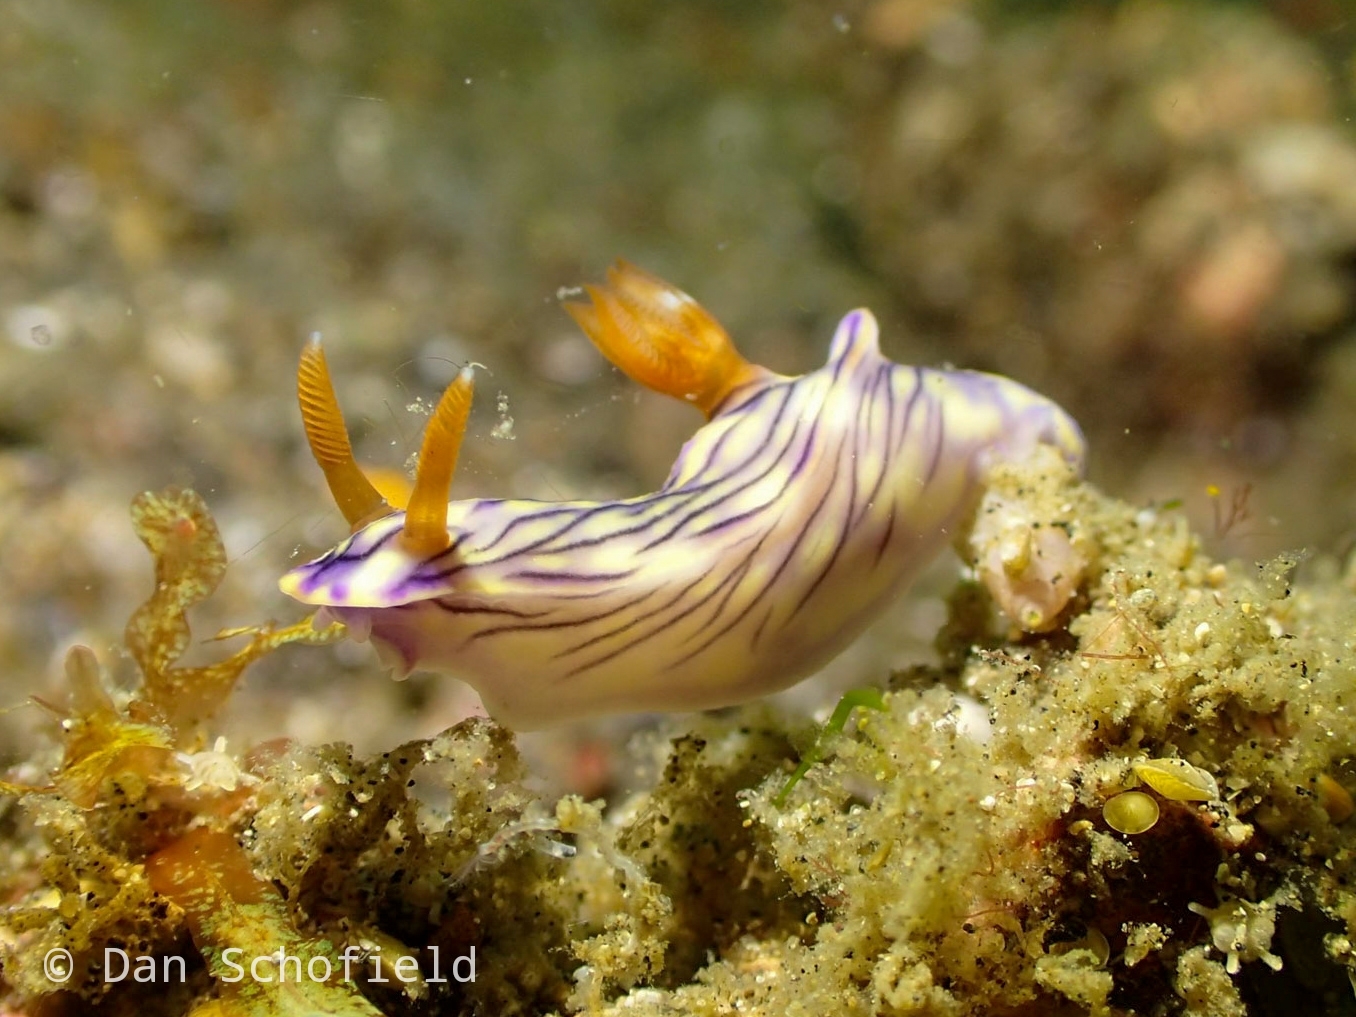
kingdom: Animalia
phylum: Mollusca
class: Gastropoda
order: Nudibranchia
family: Chromodorididae
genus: Hypselodoris
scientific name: Hypselodoris zephyra
